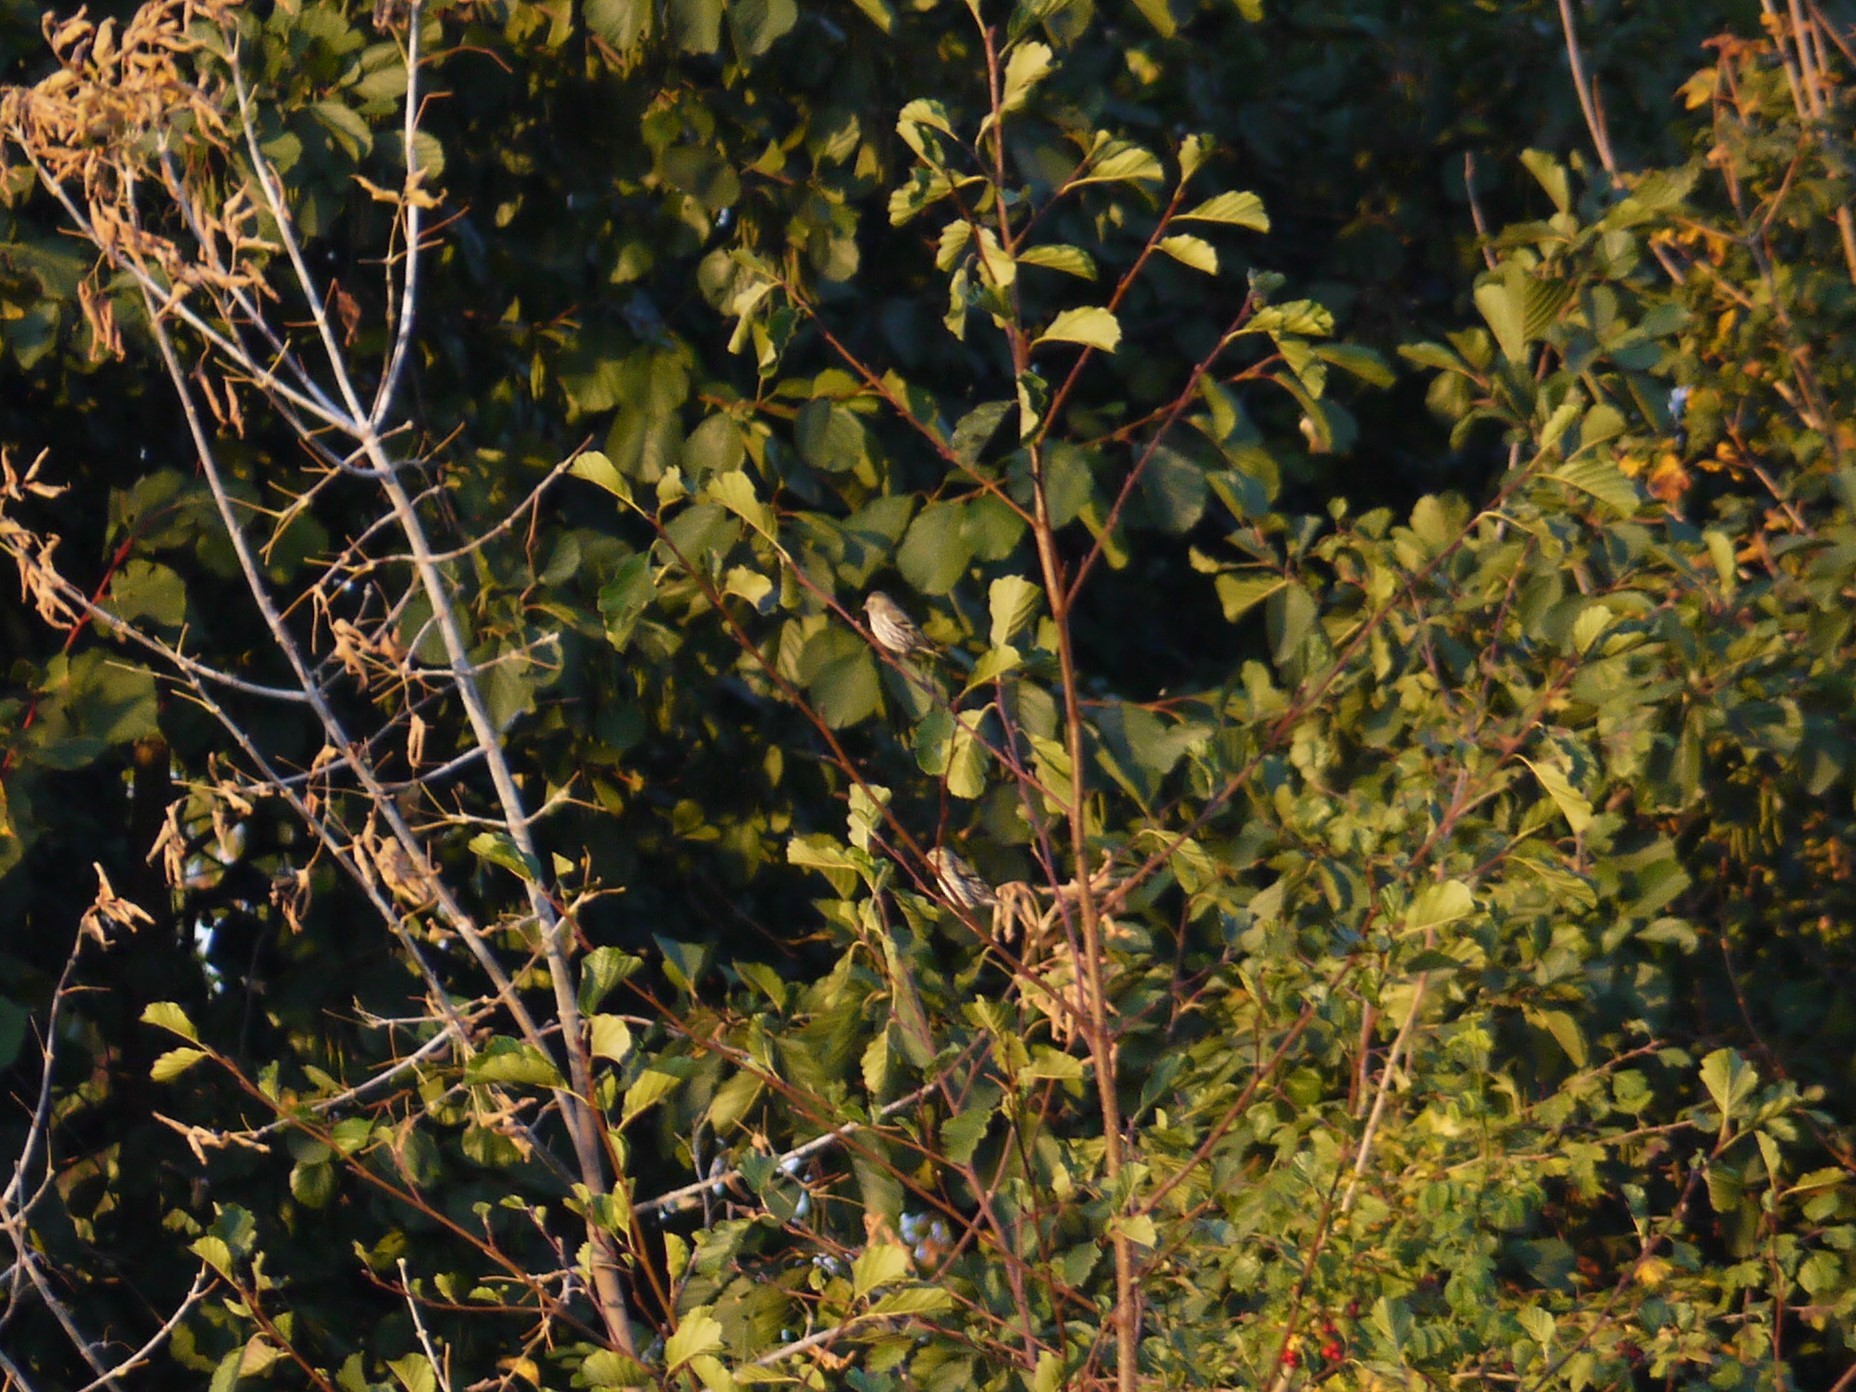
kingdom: Animalia
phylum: Chordata
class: Aves
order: Passeriformes
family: Fringillidae
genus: Spinus
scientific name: Spinus spinus
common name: Eurasian siskin
